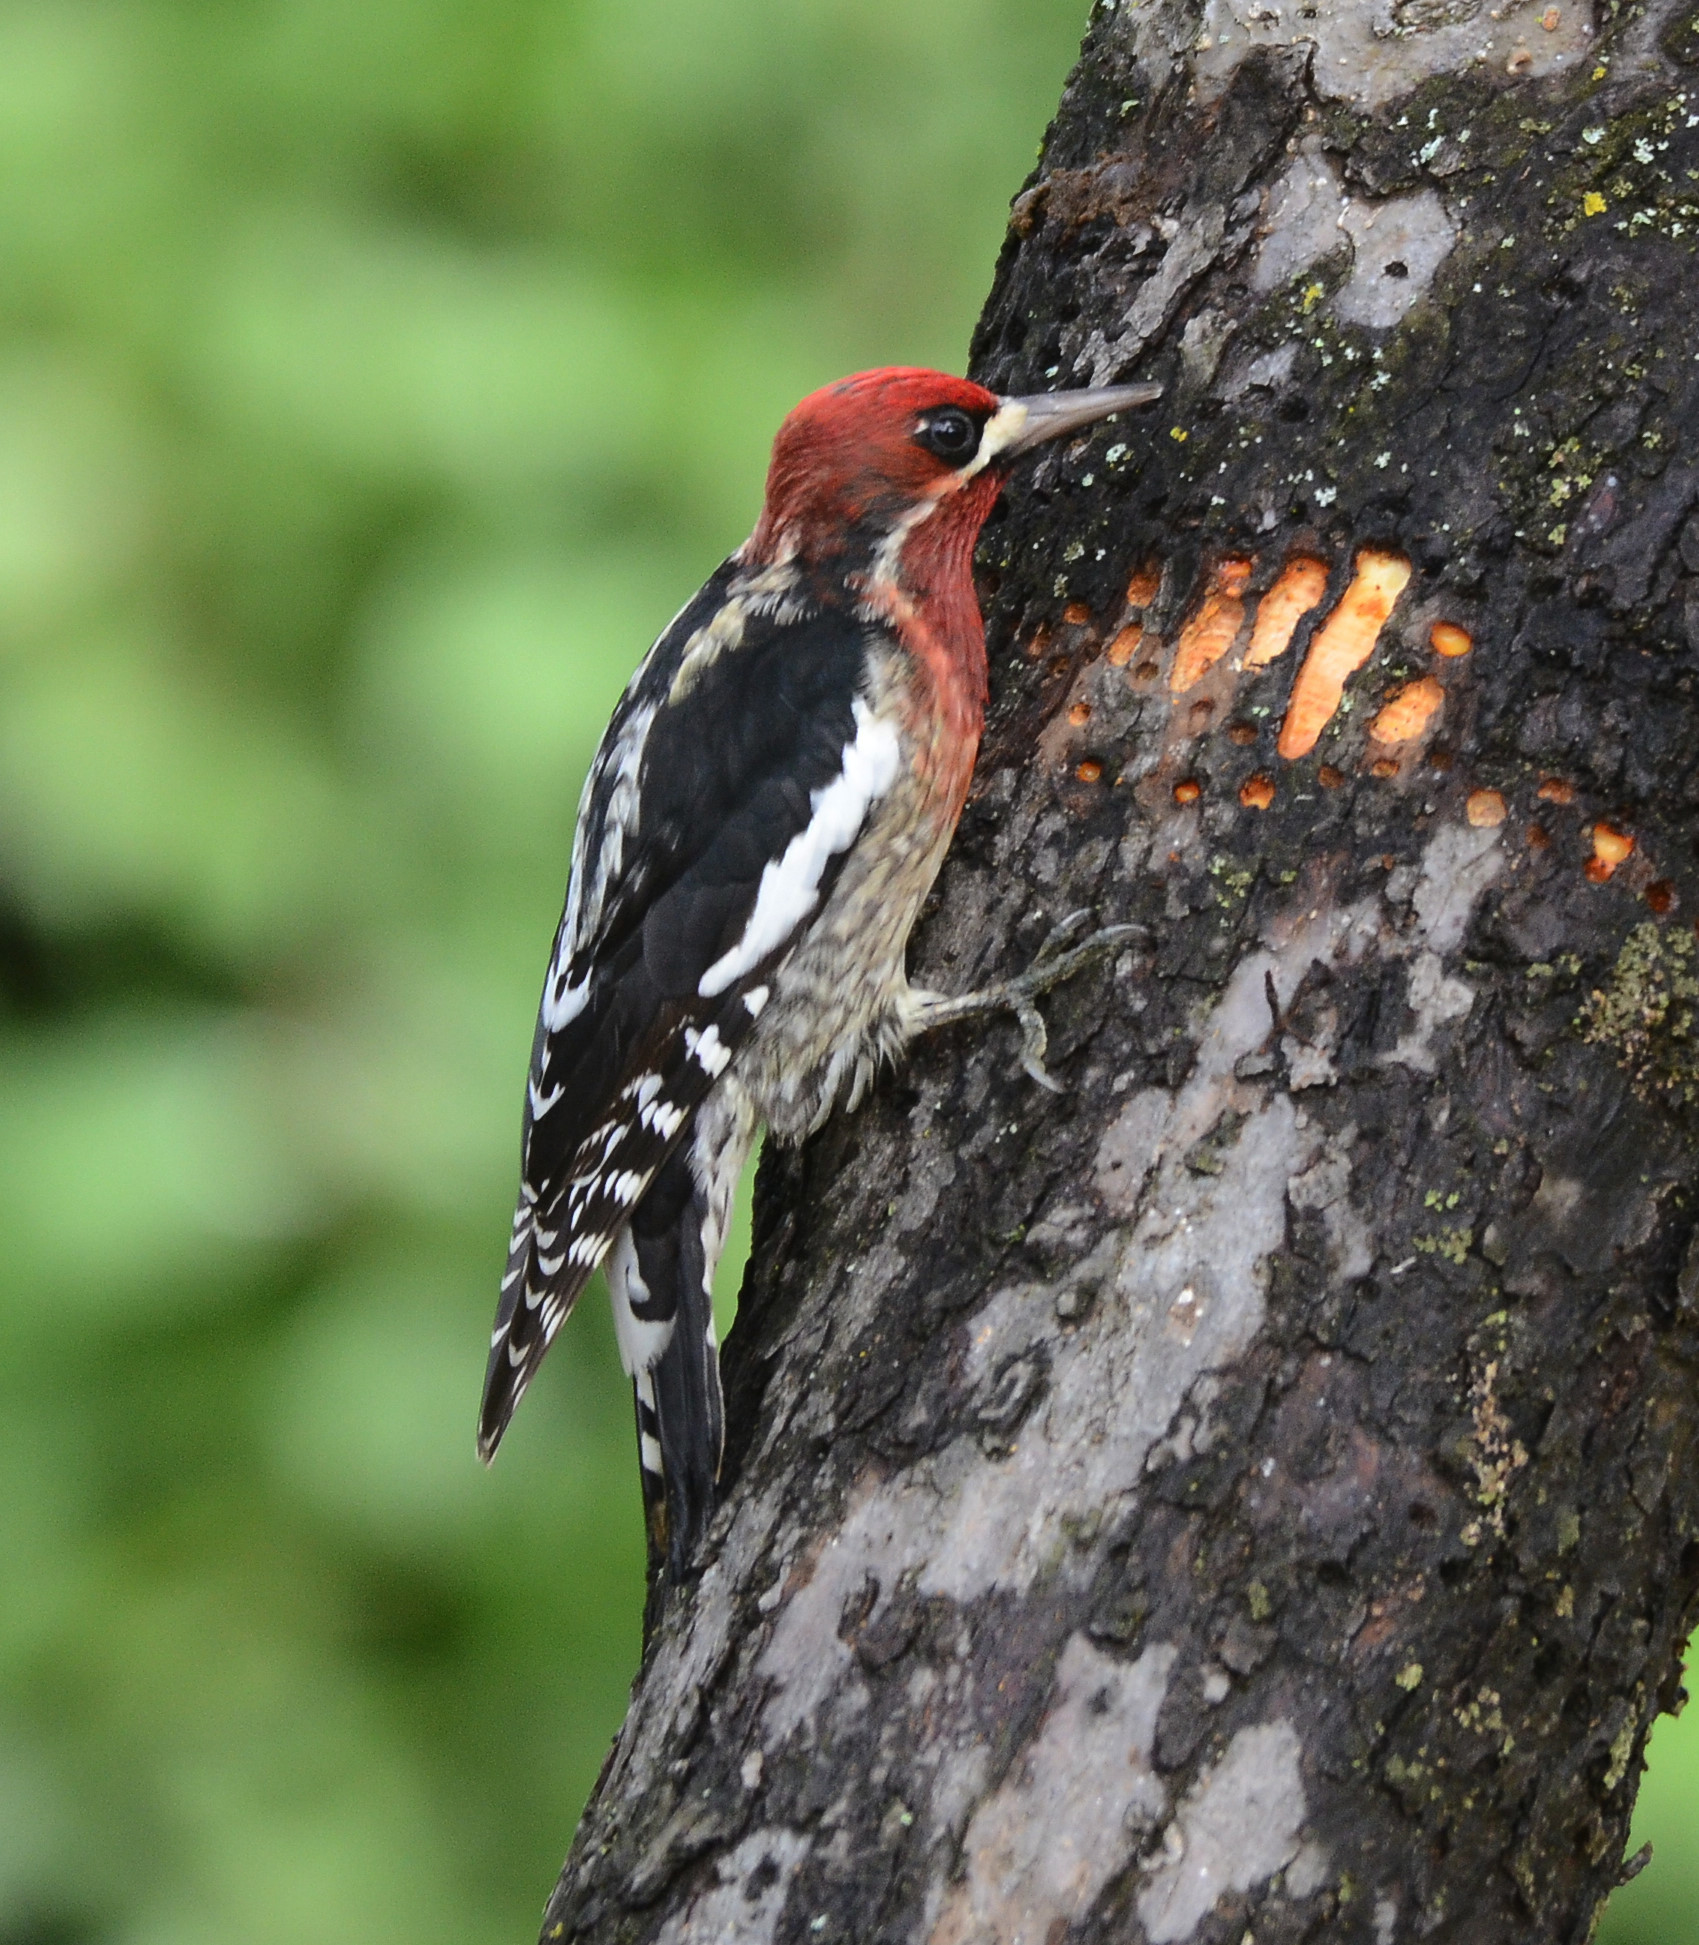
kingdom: Animalia
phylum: Chordata
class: Aves
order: Piciformes
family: Picidae
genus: Sphyrapicus
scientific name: Sphyrapicus ruber
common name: Red-breasted sapsucker
